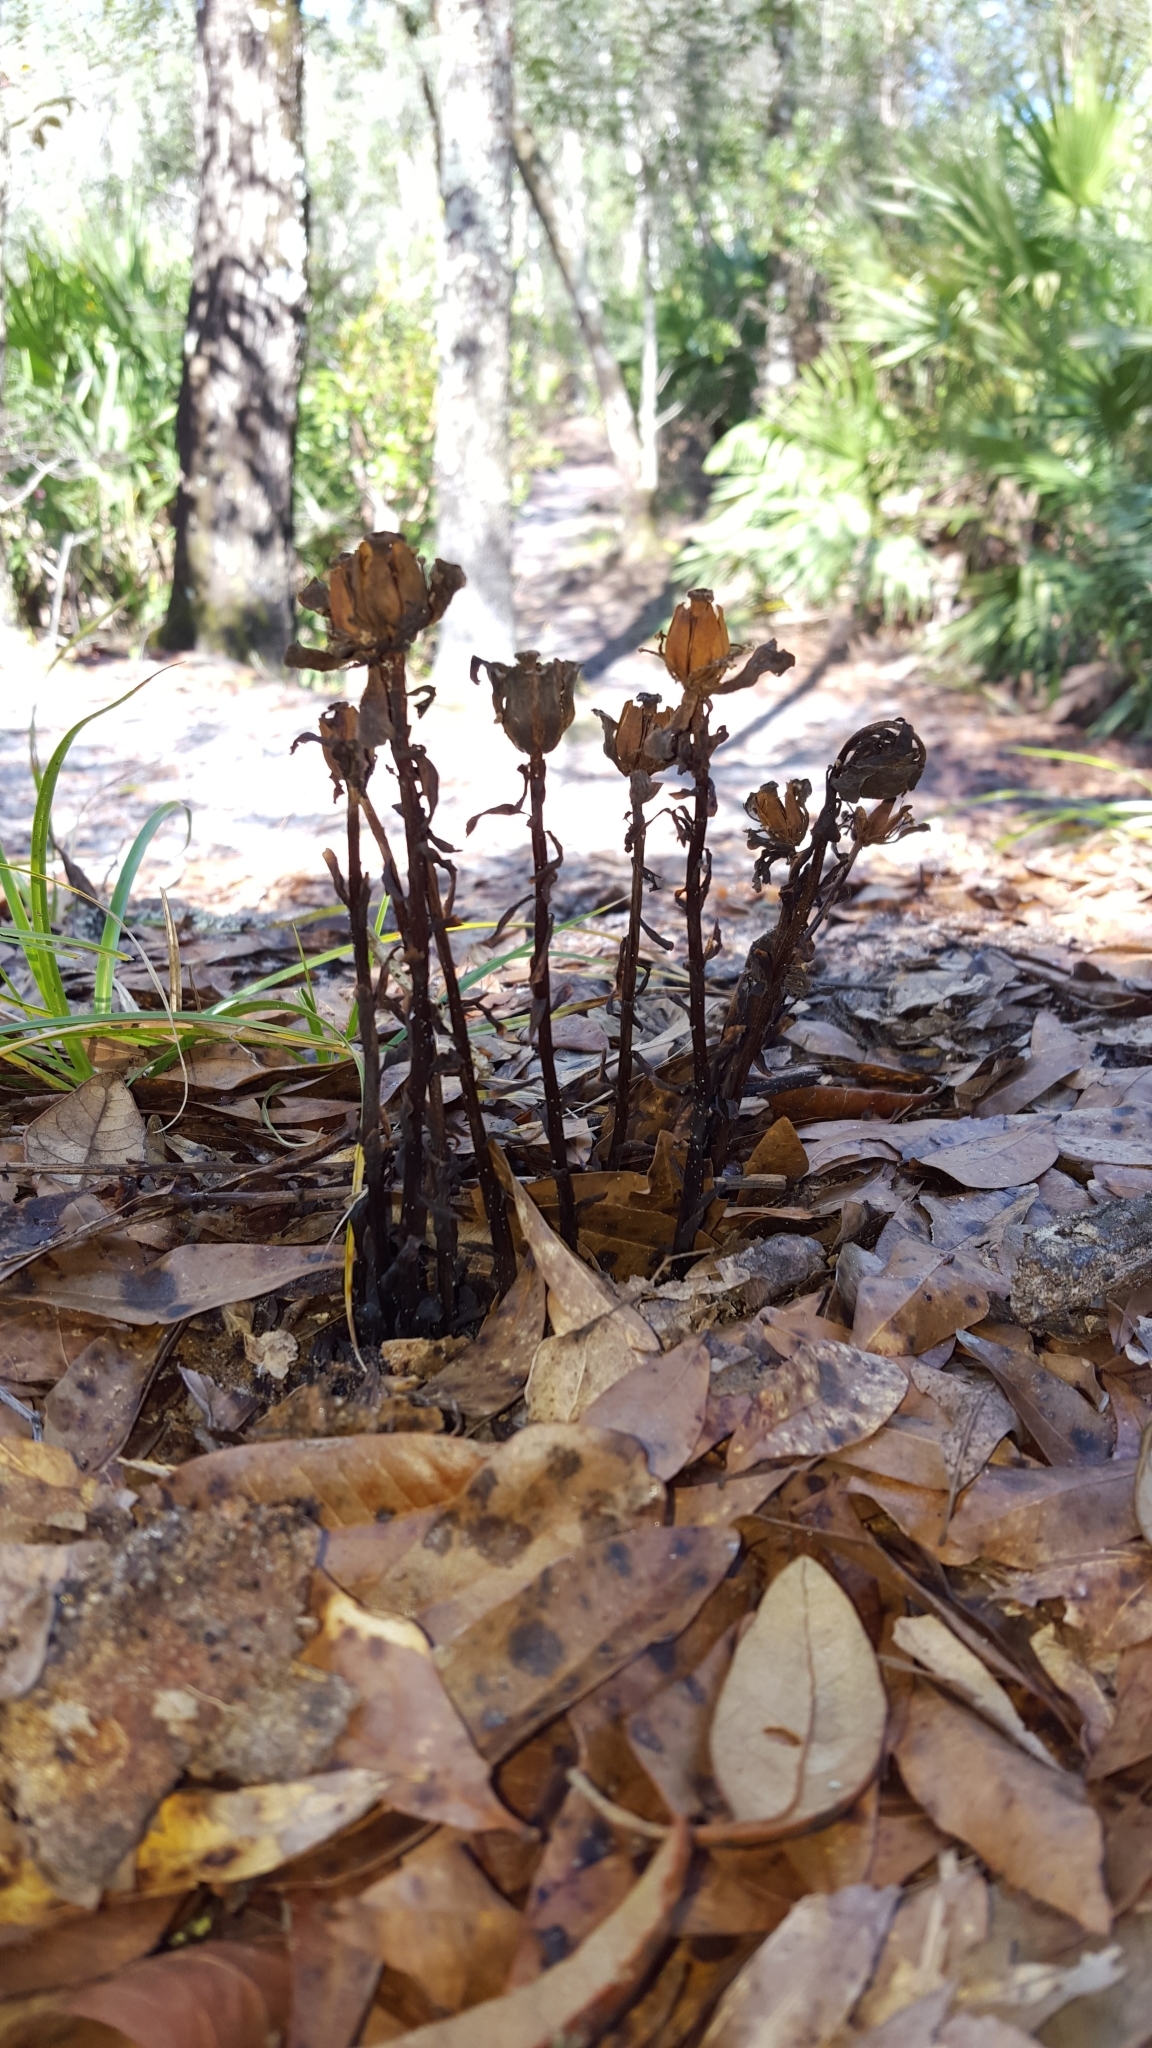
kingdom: Plantae
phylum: Tracheophyta
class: Magnoliopsida
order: Ericales
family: Ericaceae
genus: Monotropa
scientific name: Monotropa uniflora
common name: Convulsion root
